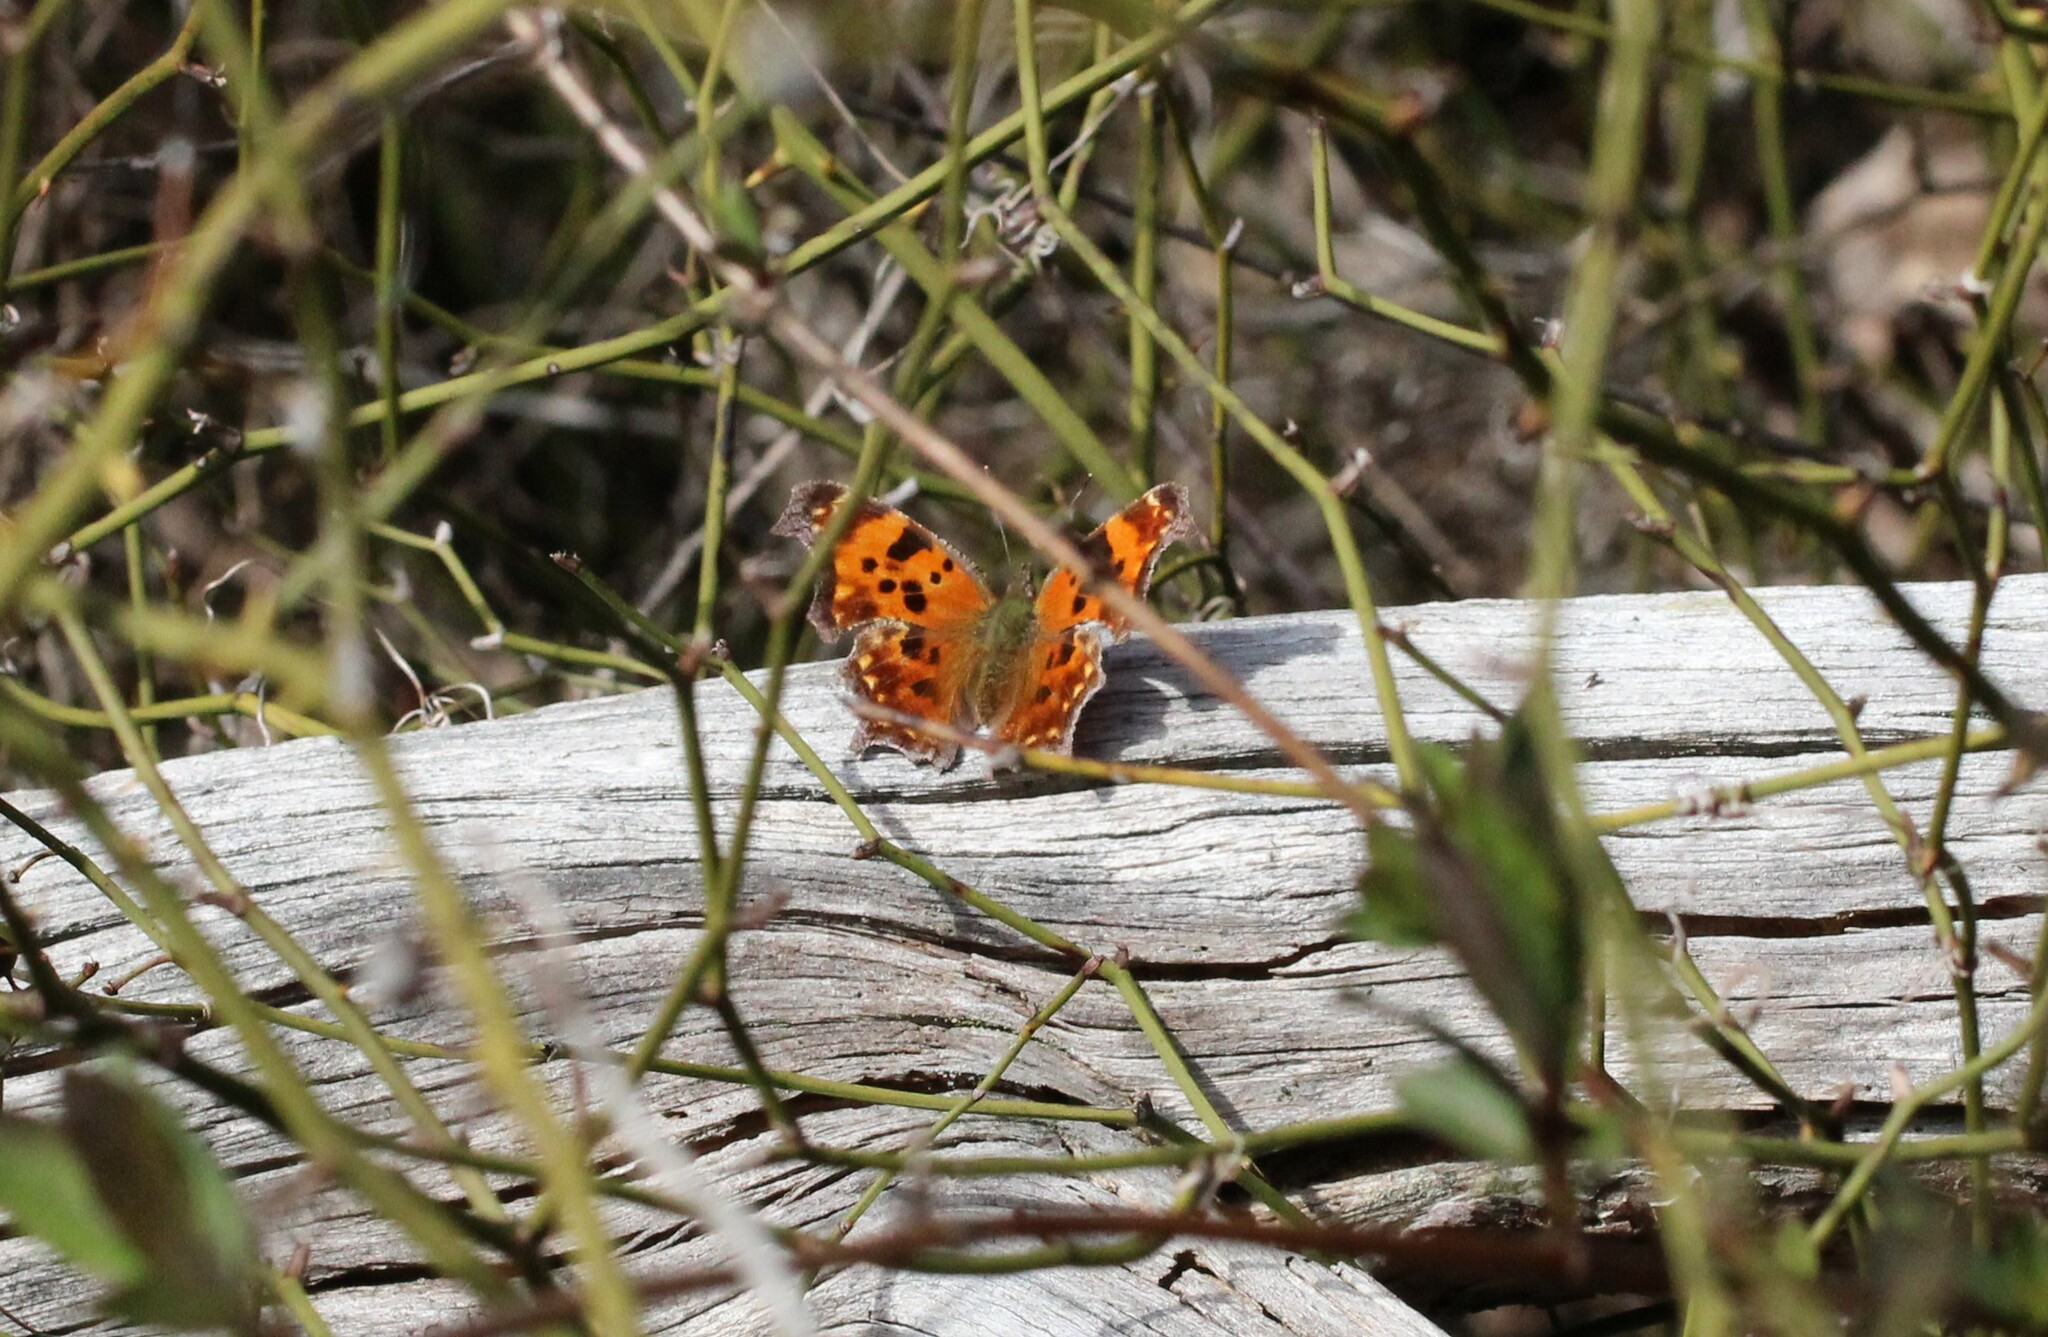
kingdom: Animalia
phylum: Arthropoda
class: Insecta
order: Lepidoptera
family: Nymphalidae
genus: Polygonia
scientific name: Polygonia comma
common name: Eastern comma
